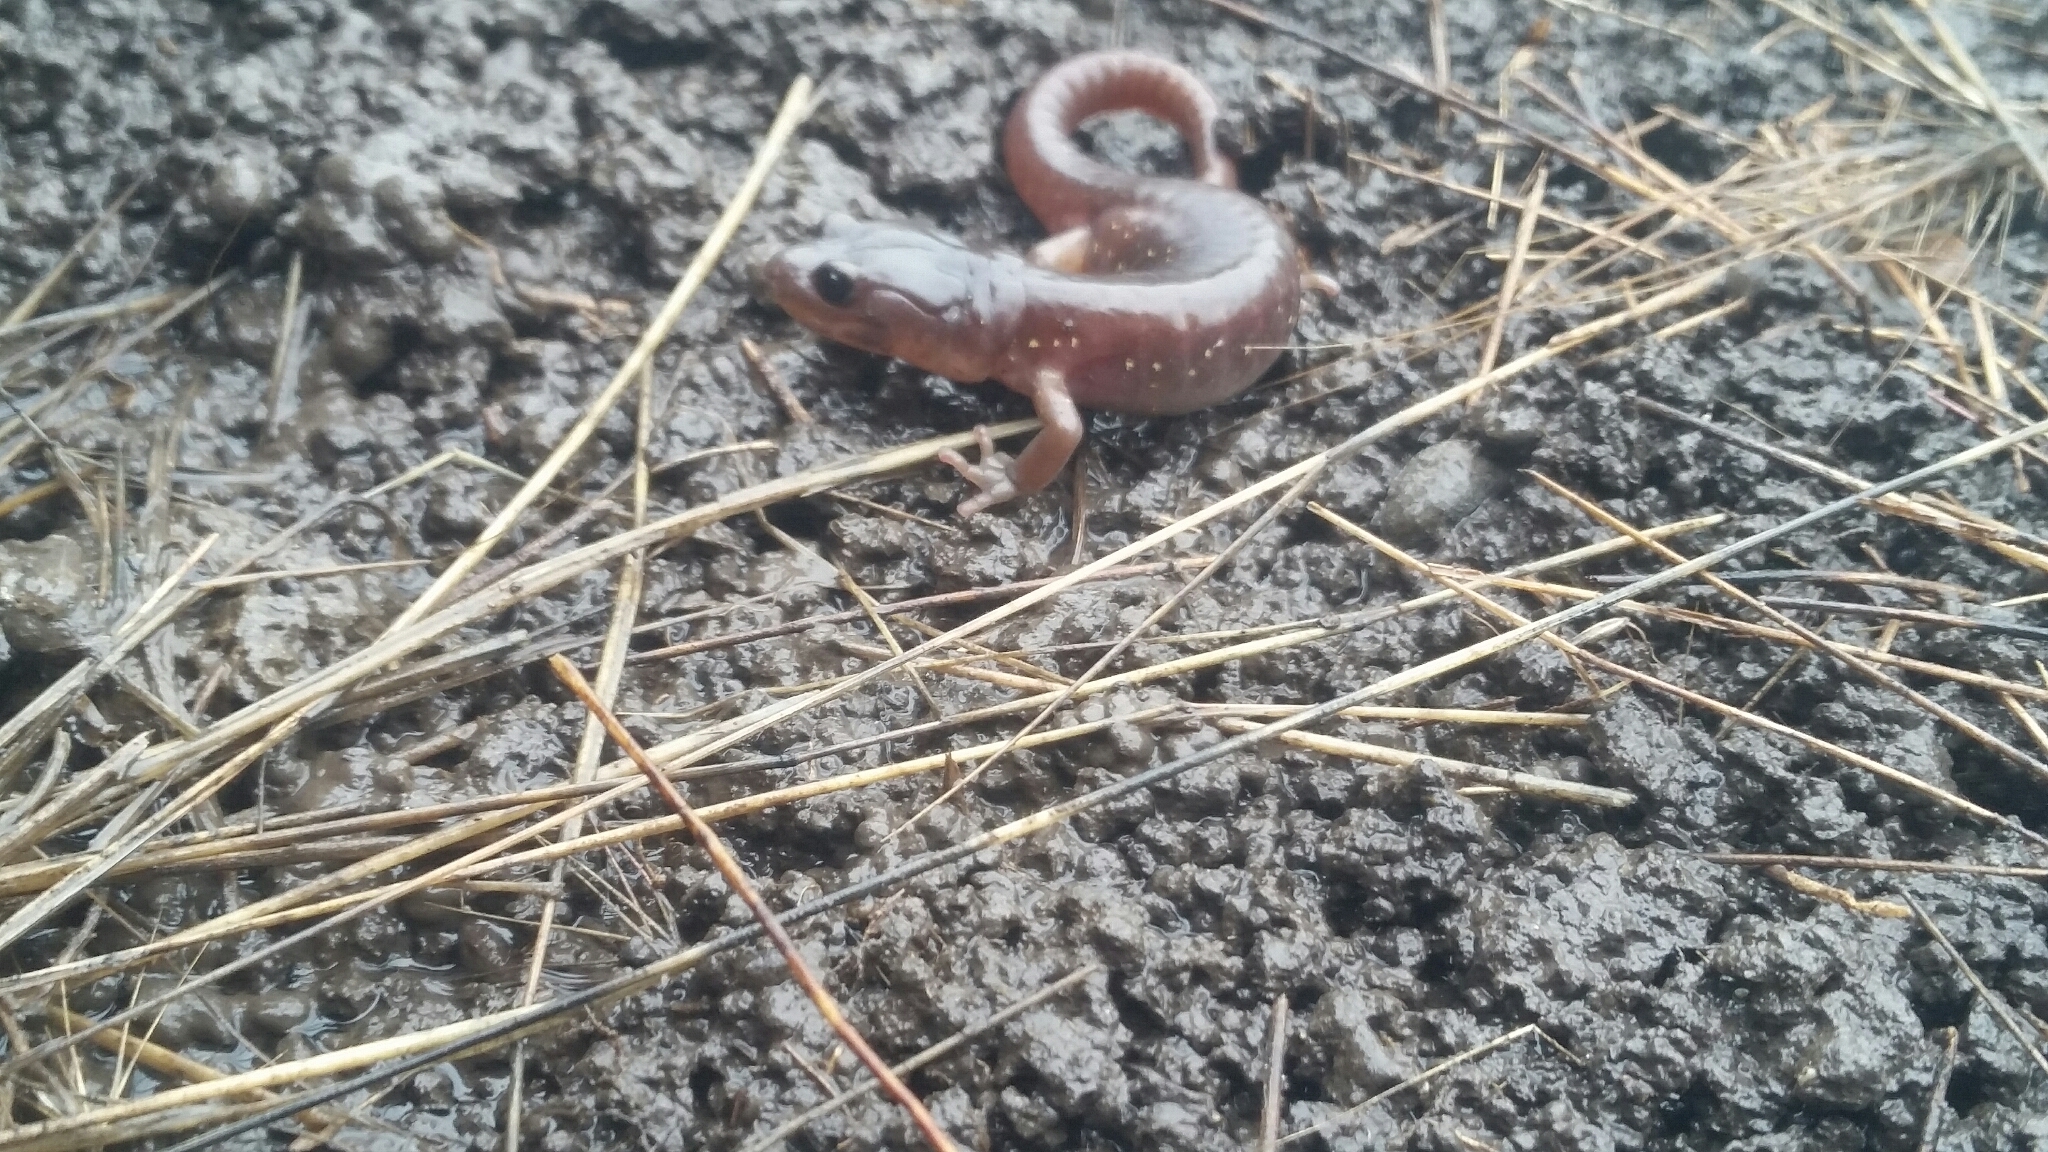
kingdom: Animalia
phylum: Chordata
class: Amphibia
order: Caudata
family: Plethodontidae
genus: Aneides
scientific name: Aneides lugubris
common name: Arboreal salamander
